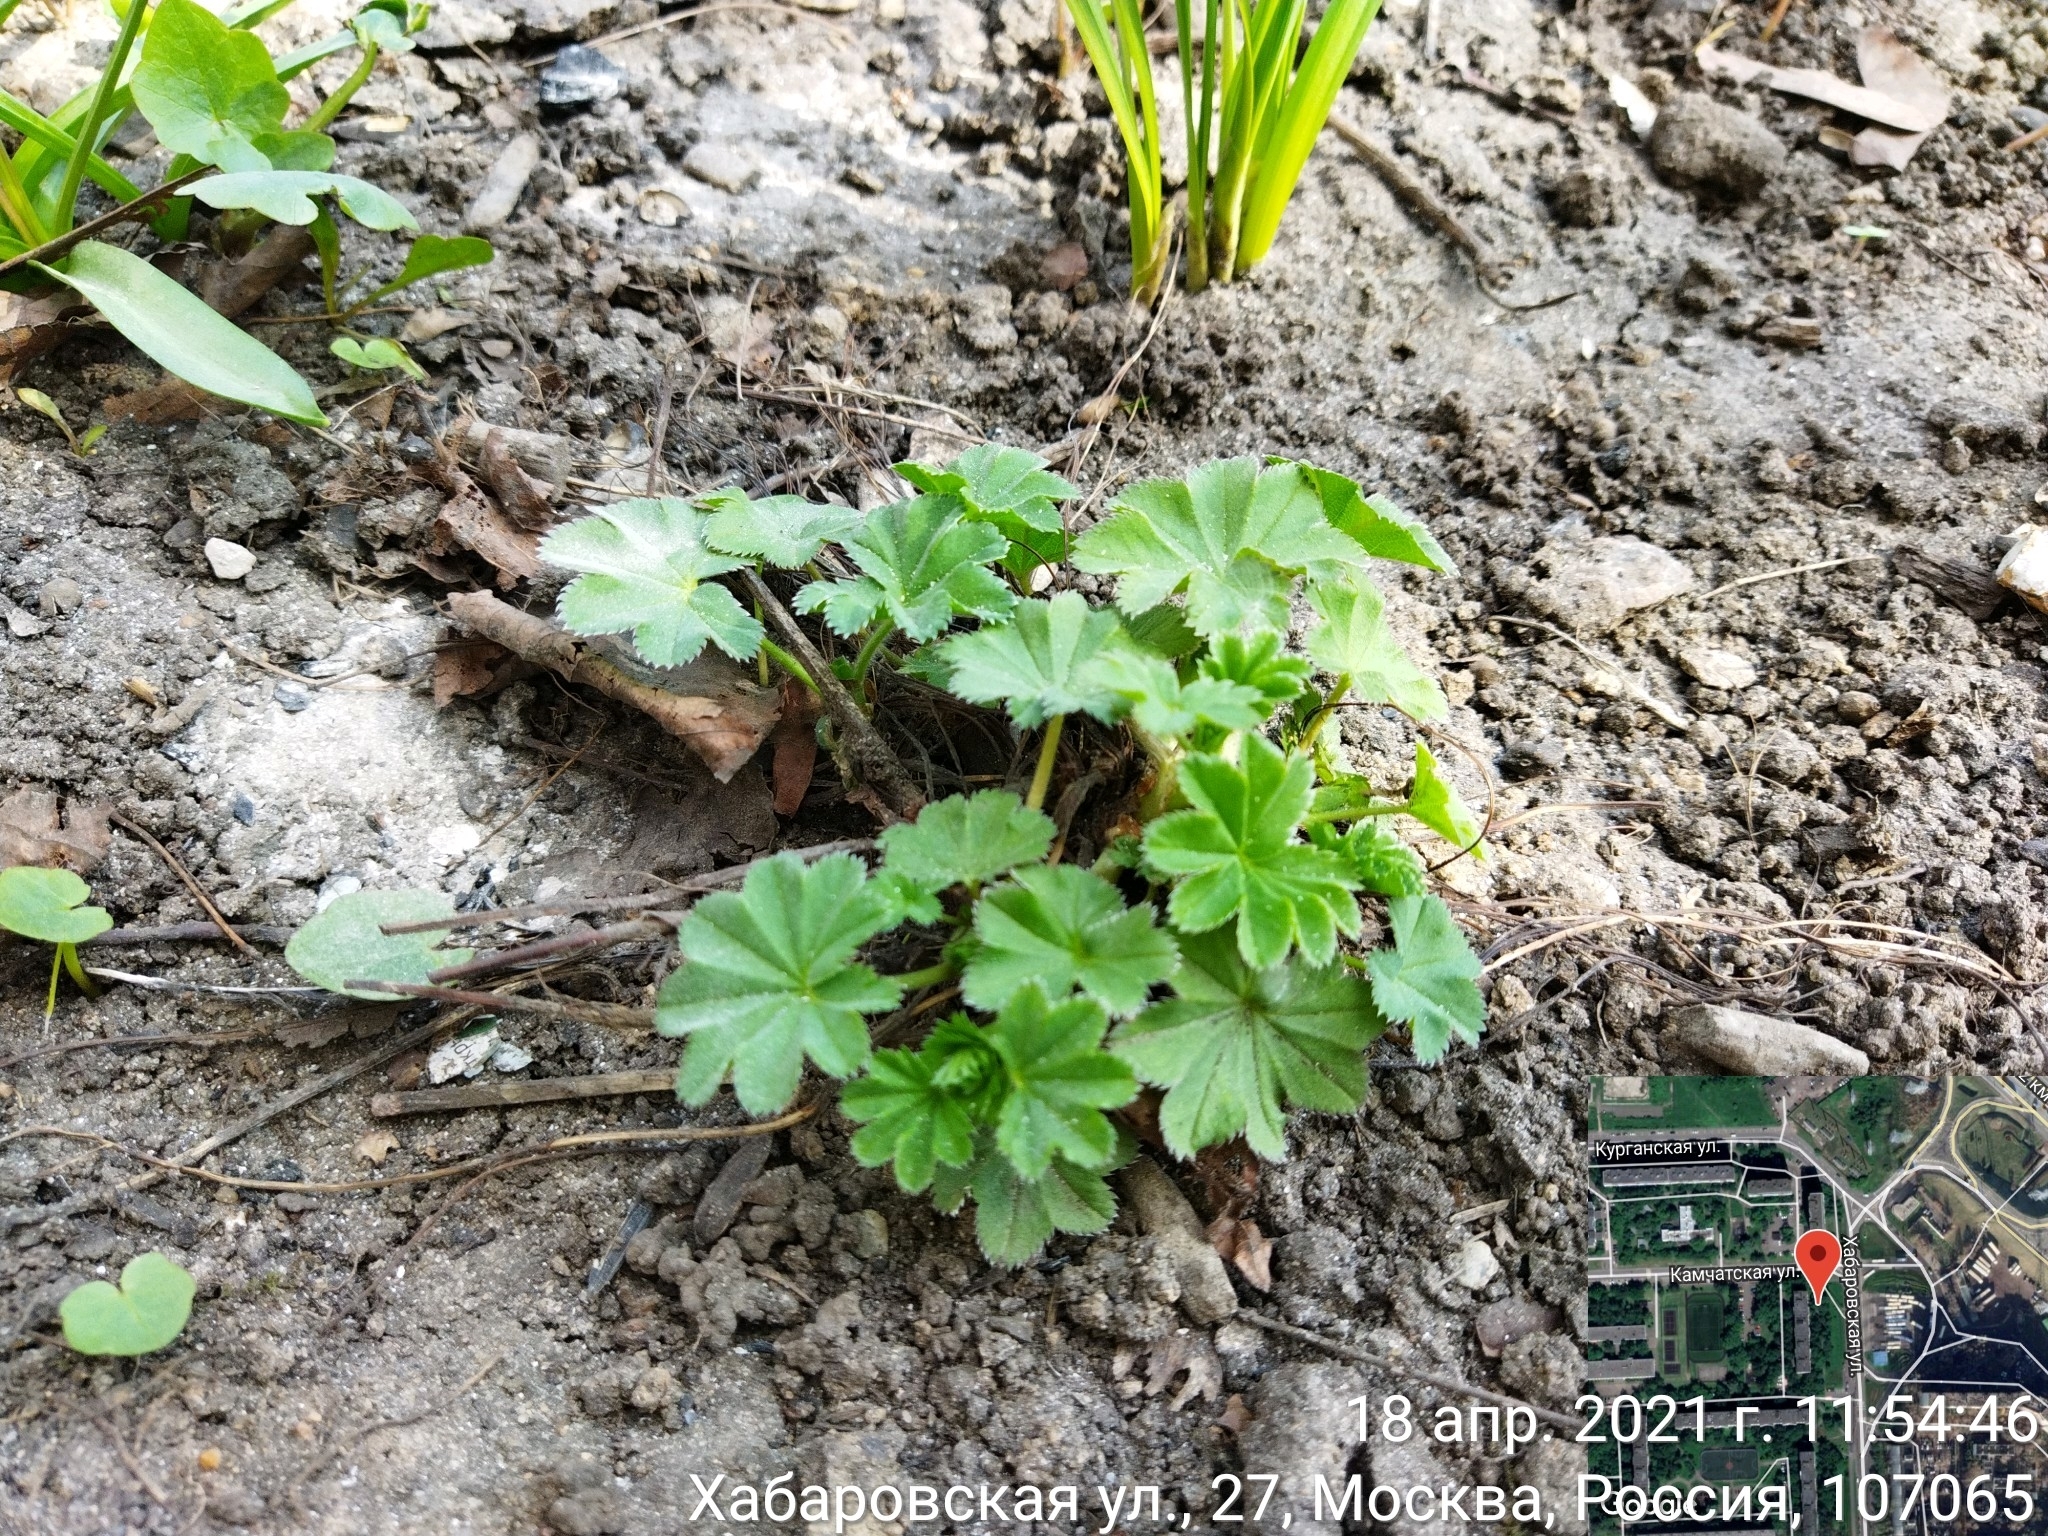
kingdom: Plantae
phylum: Tracheophyta
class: Magnoliopsida
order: Rosales
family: Rosaceae
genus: Alchemilla
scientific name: Alchemilla
